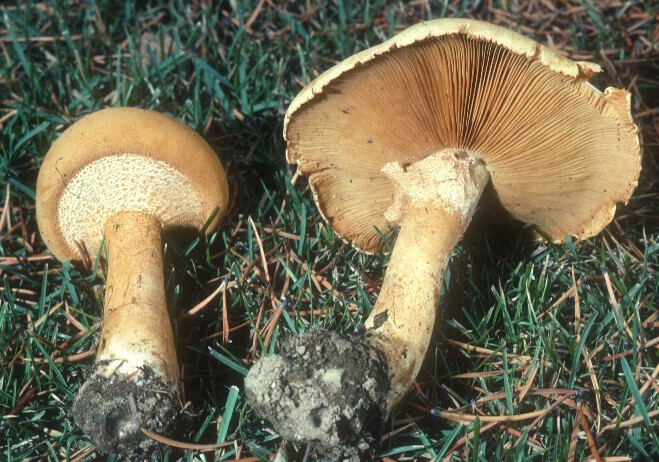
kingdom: Fungi
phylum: Basidiomycota
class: Agaricomycetes
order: Agaricales
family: Tricholomataceae
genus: Phaeolepiota
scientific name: Phaeolepiota aurea
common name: Golden bootleg
